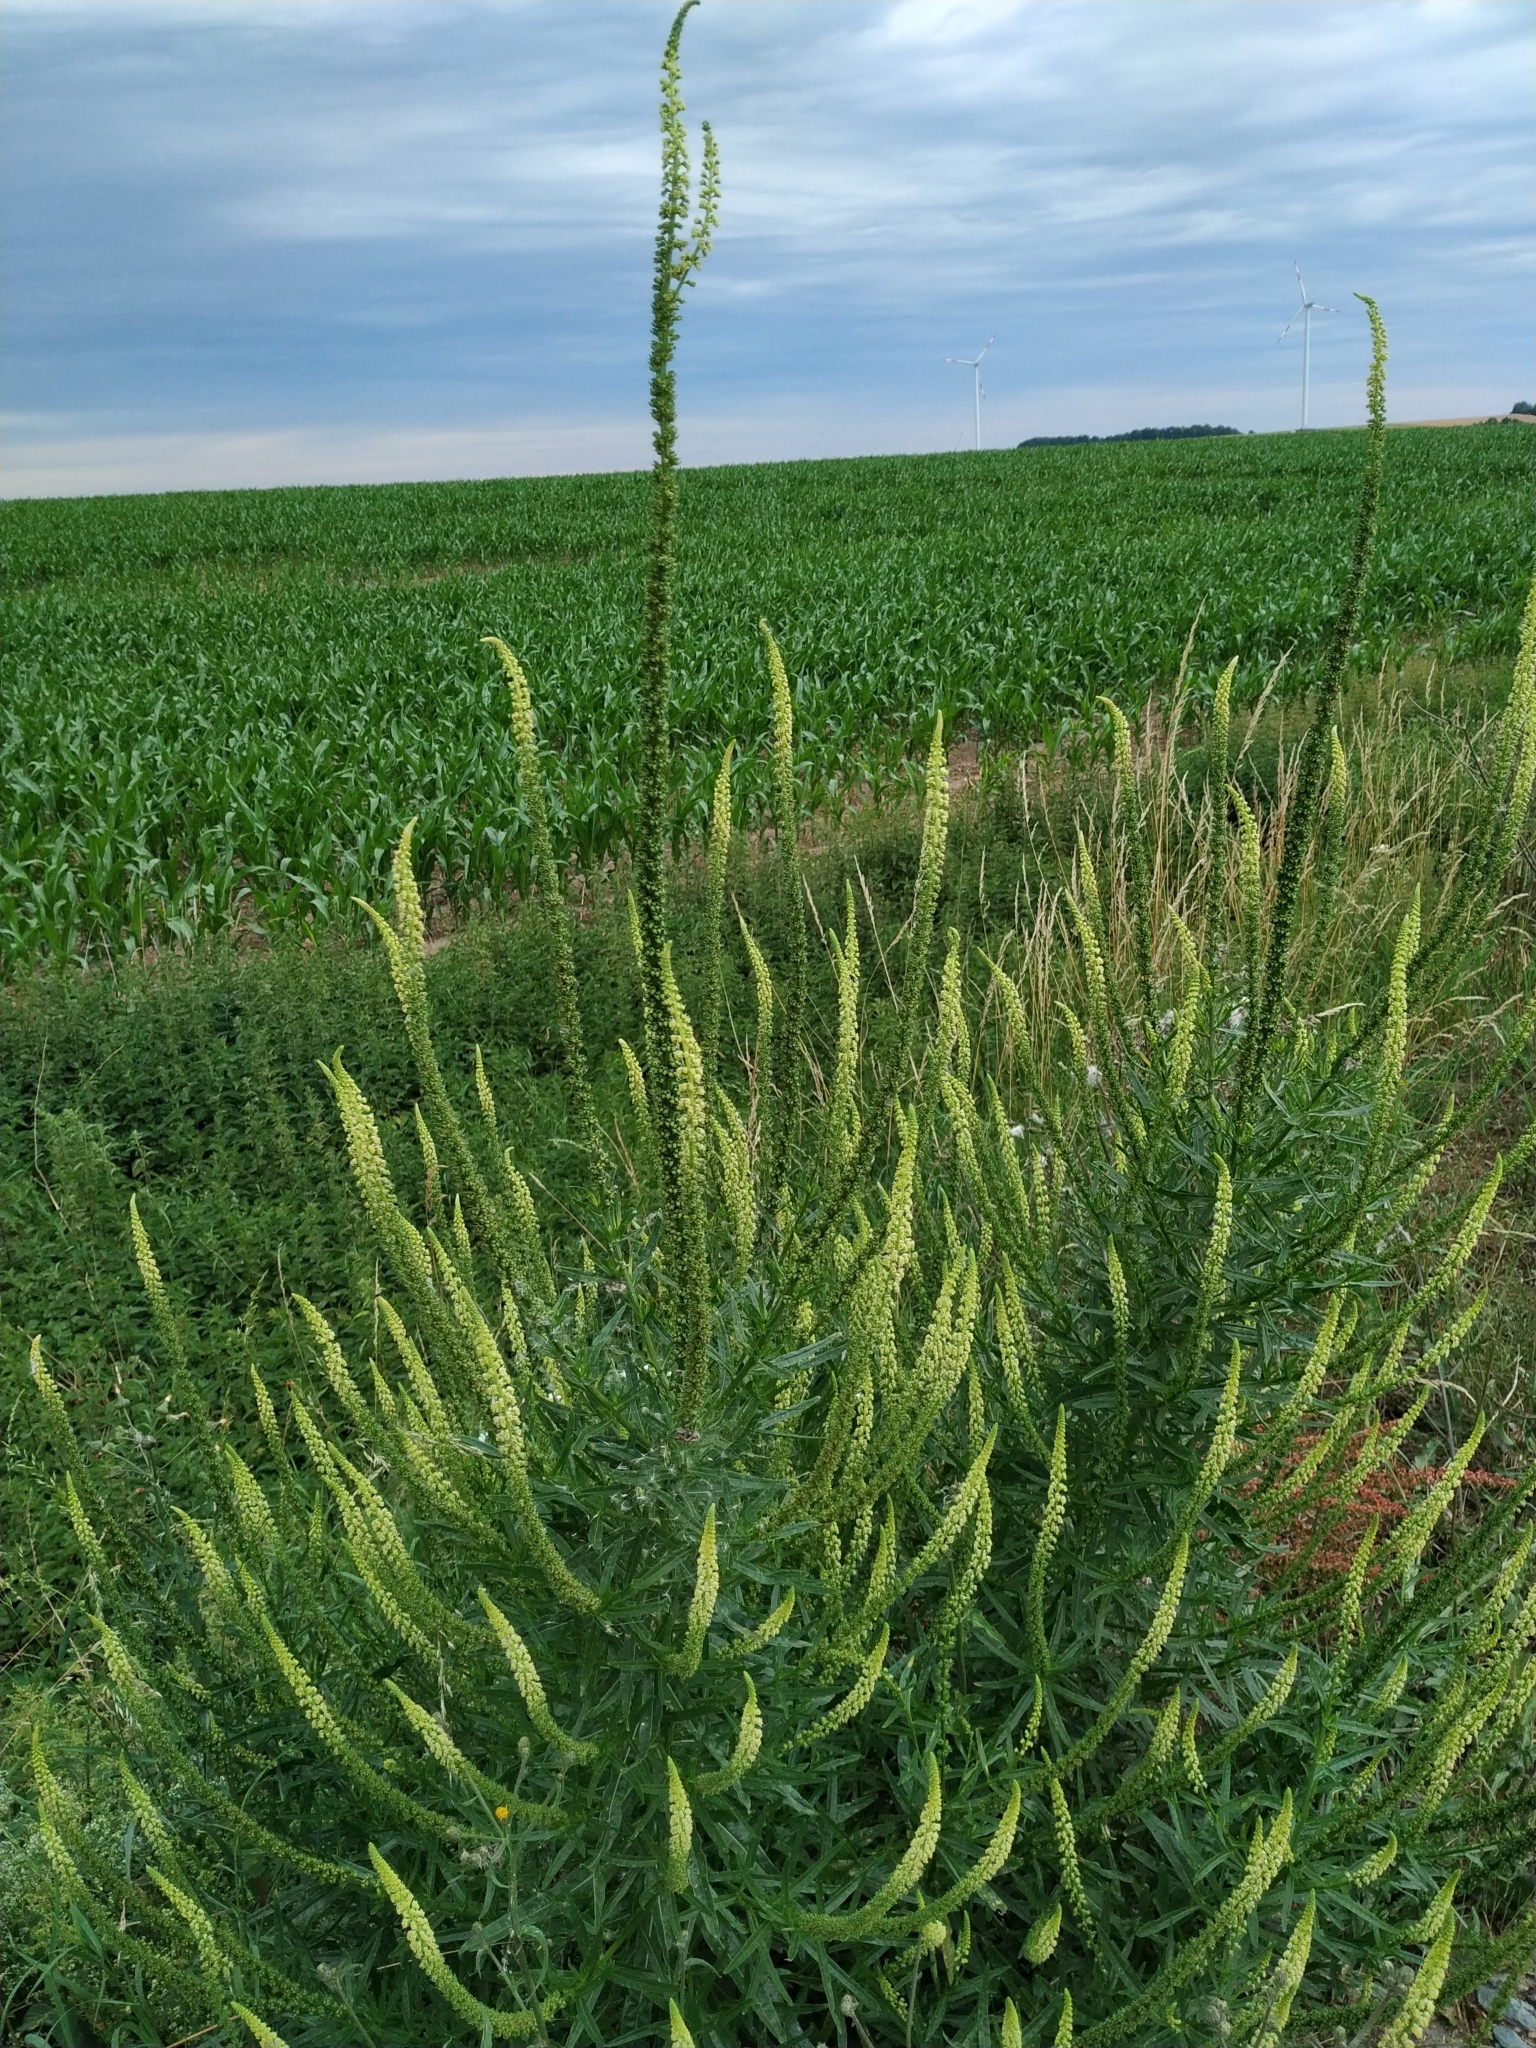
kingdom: Plantae
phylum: Tracheophyta
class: Magnoliopsida
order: Brassicales
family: Resedaceae
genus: Reseda
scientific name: Reseda luteola
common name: Weld
